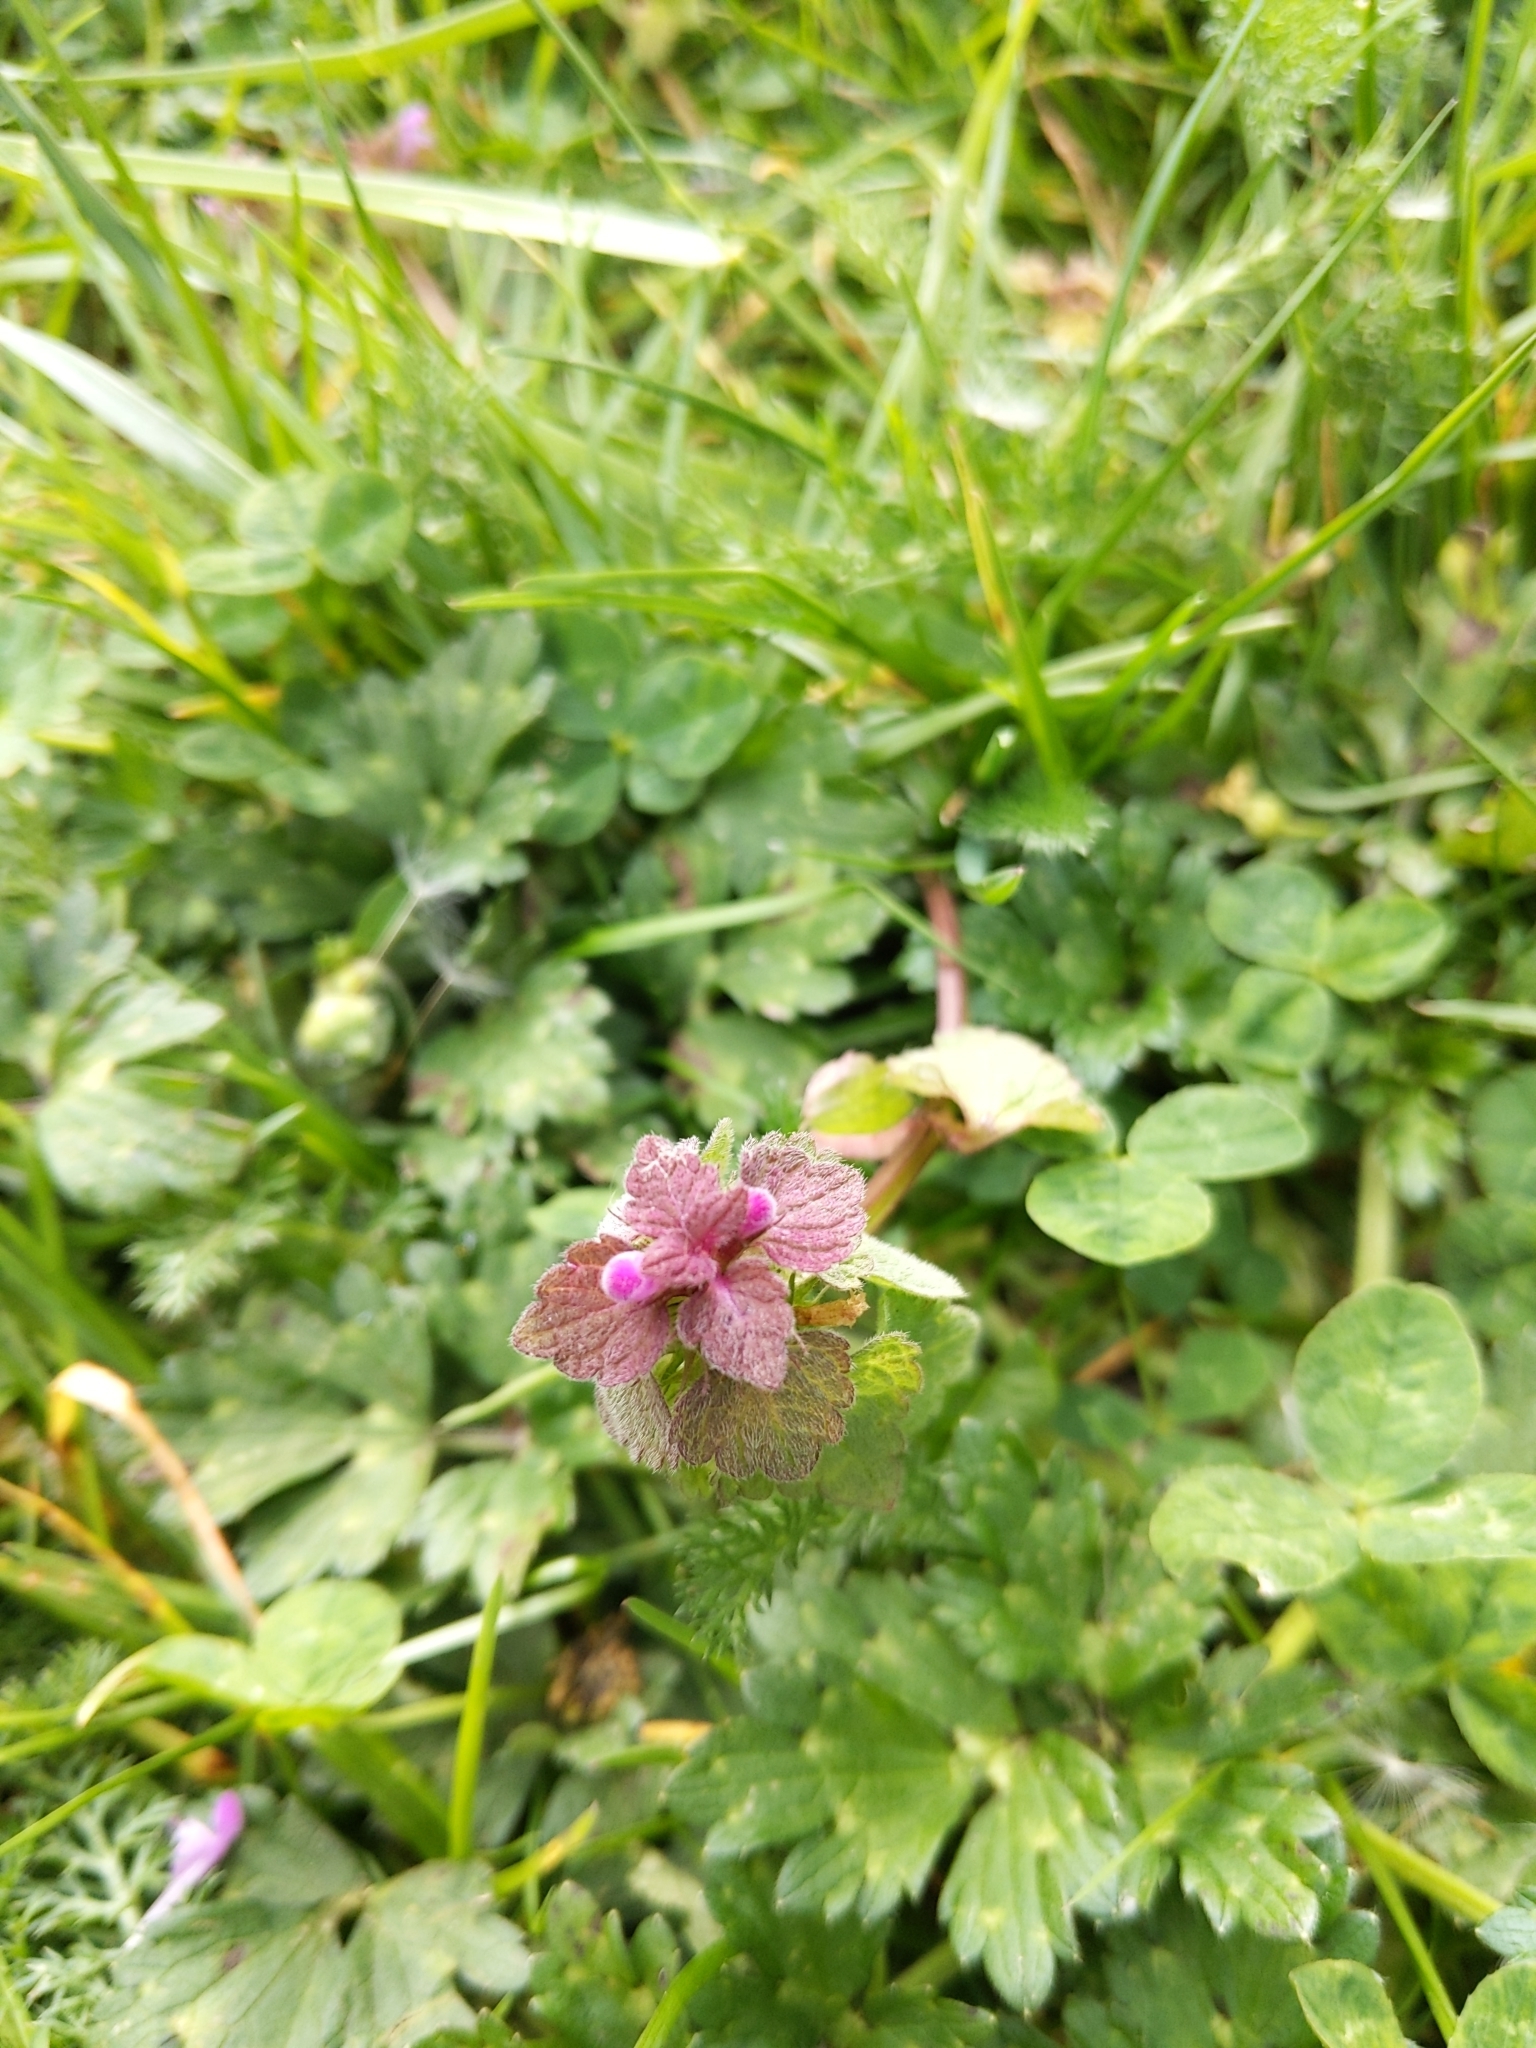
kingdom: Plantae
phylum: Tracheophyta
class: Magnoliopsida
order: Lamiales
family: Lamiaceae
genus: Lamium
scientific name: Lamium purpureum
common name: Red dead-nettle
